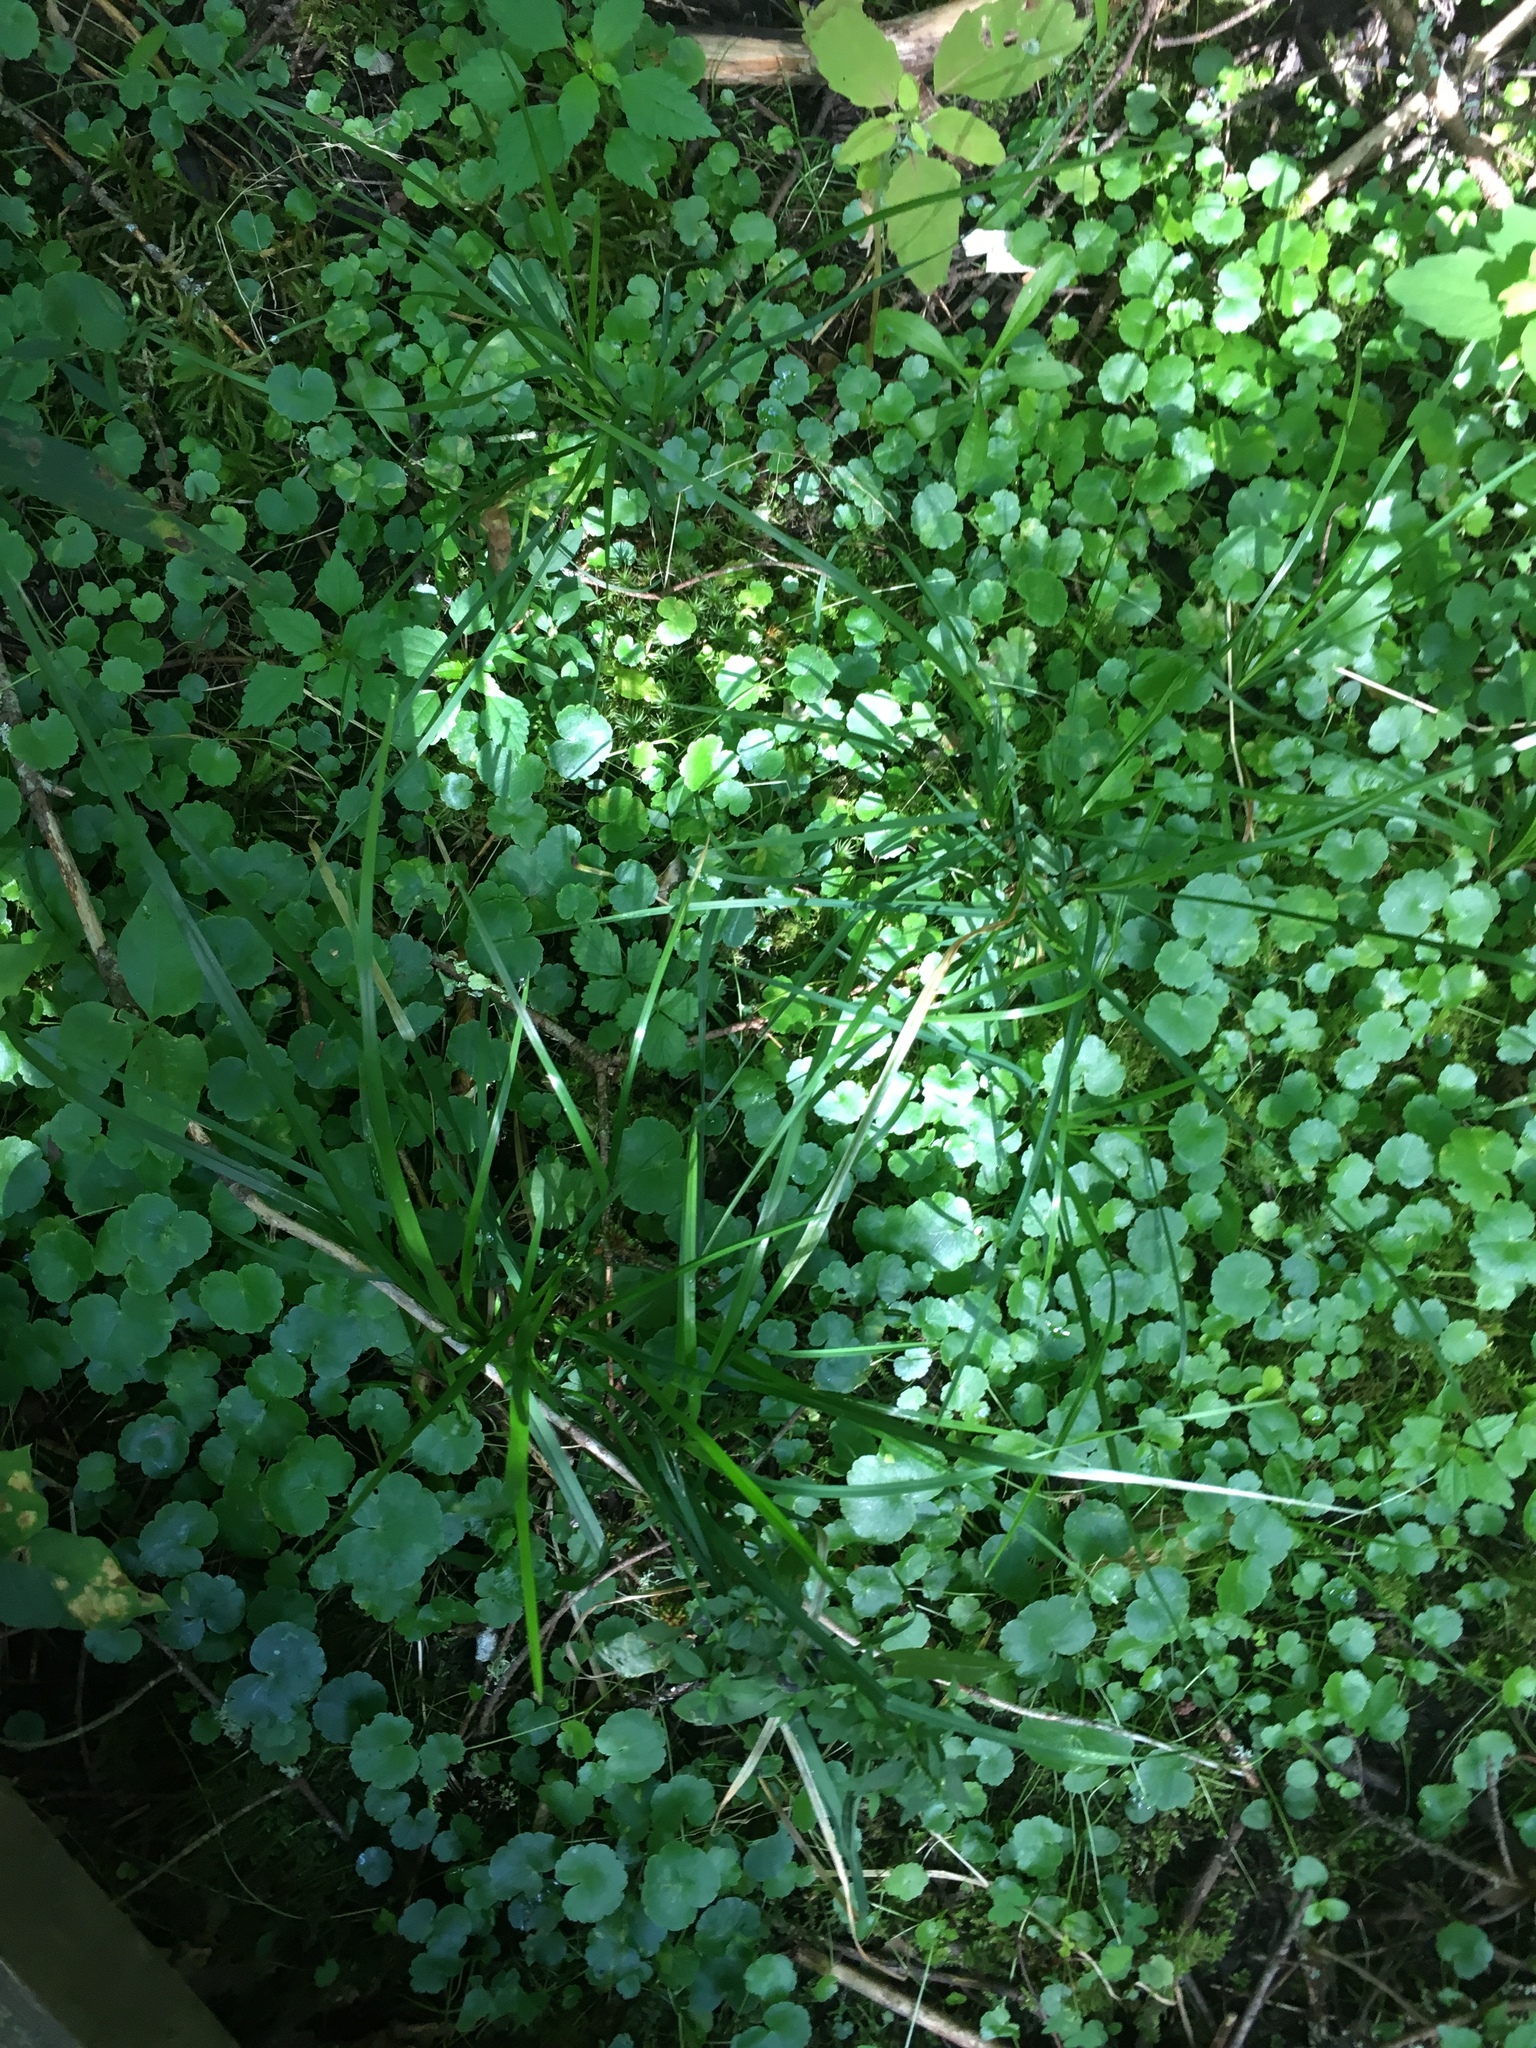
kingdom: Plantae
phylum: Tracheophyta
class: Magnoliopsida
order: Apiales
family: Araliaceae
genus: Hydrocotyle
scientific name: Hydrocotyle americana
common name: American water-pennywort
